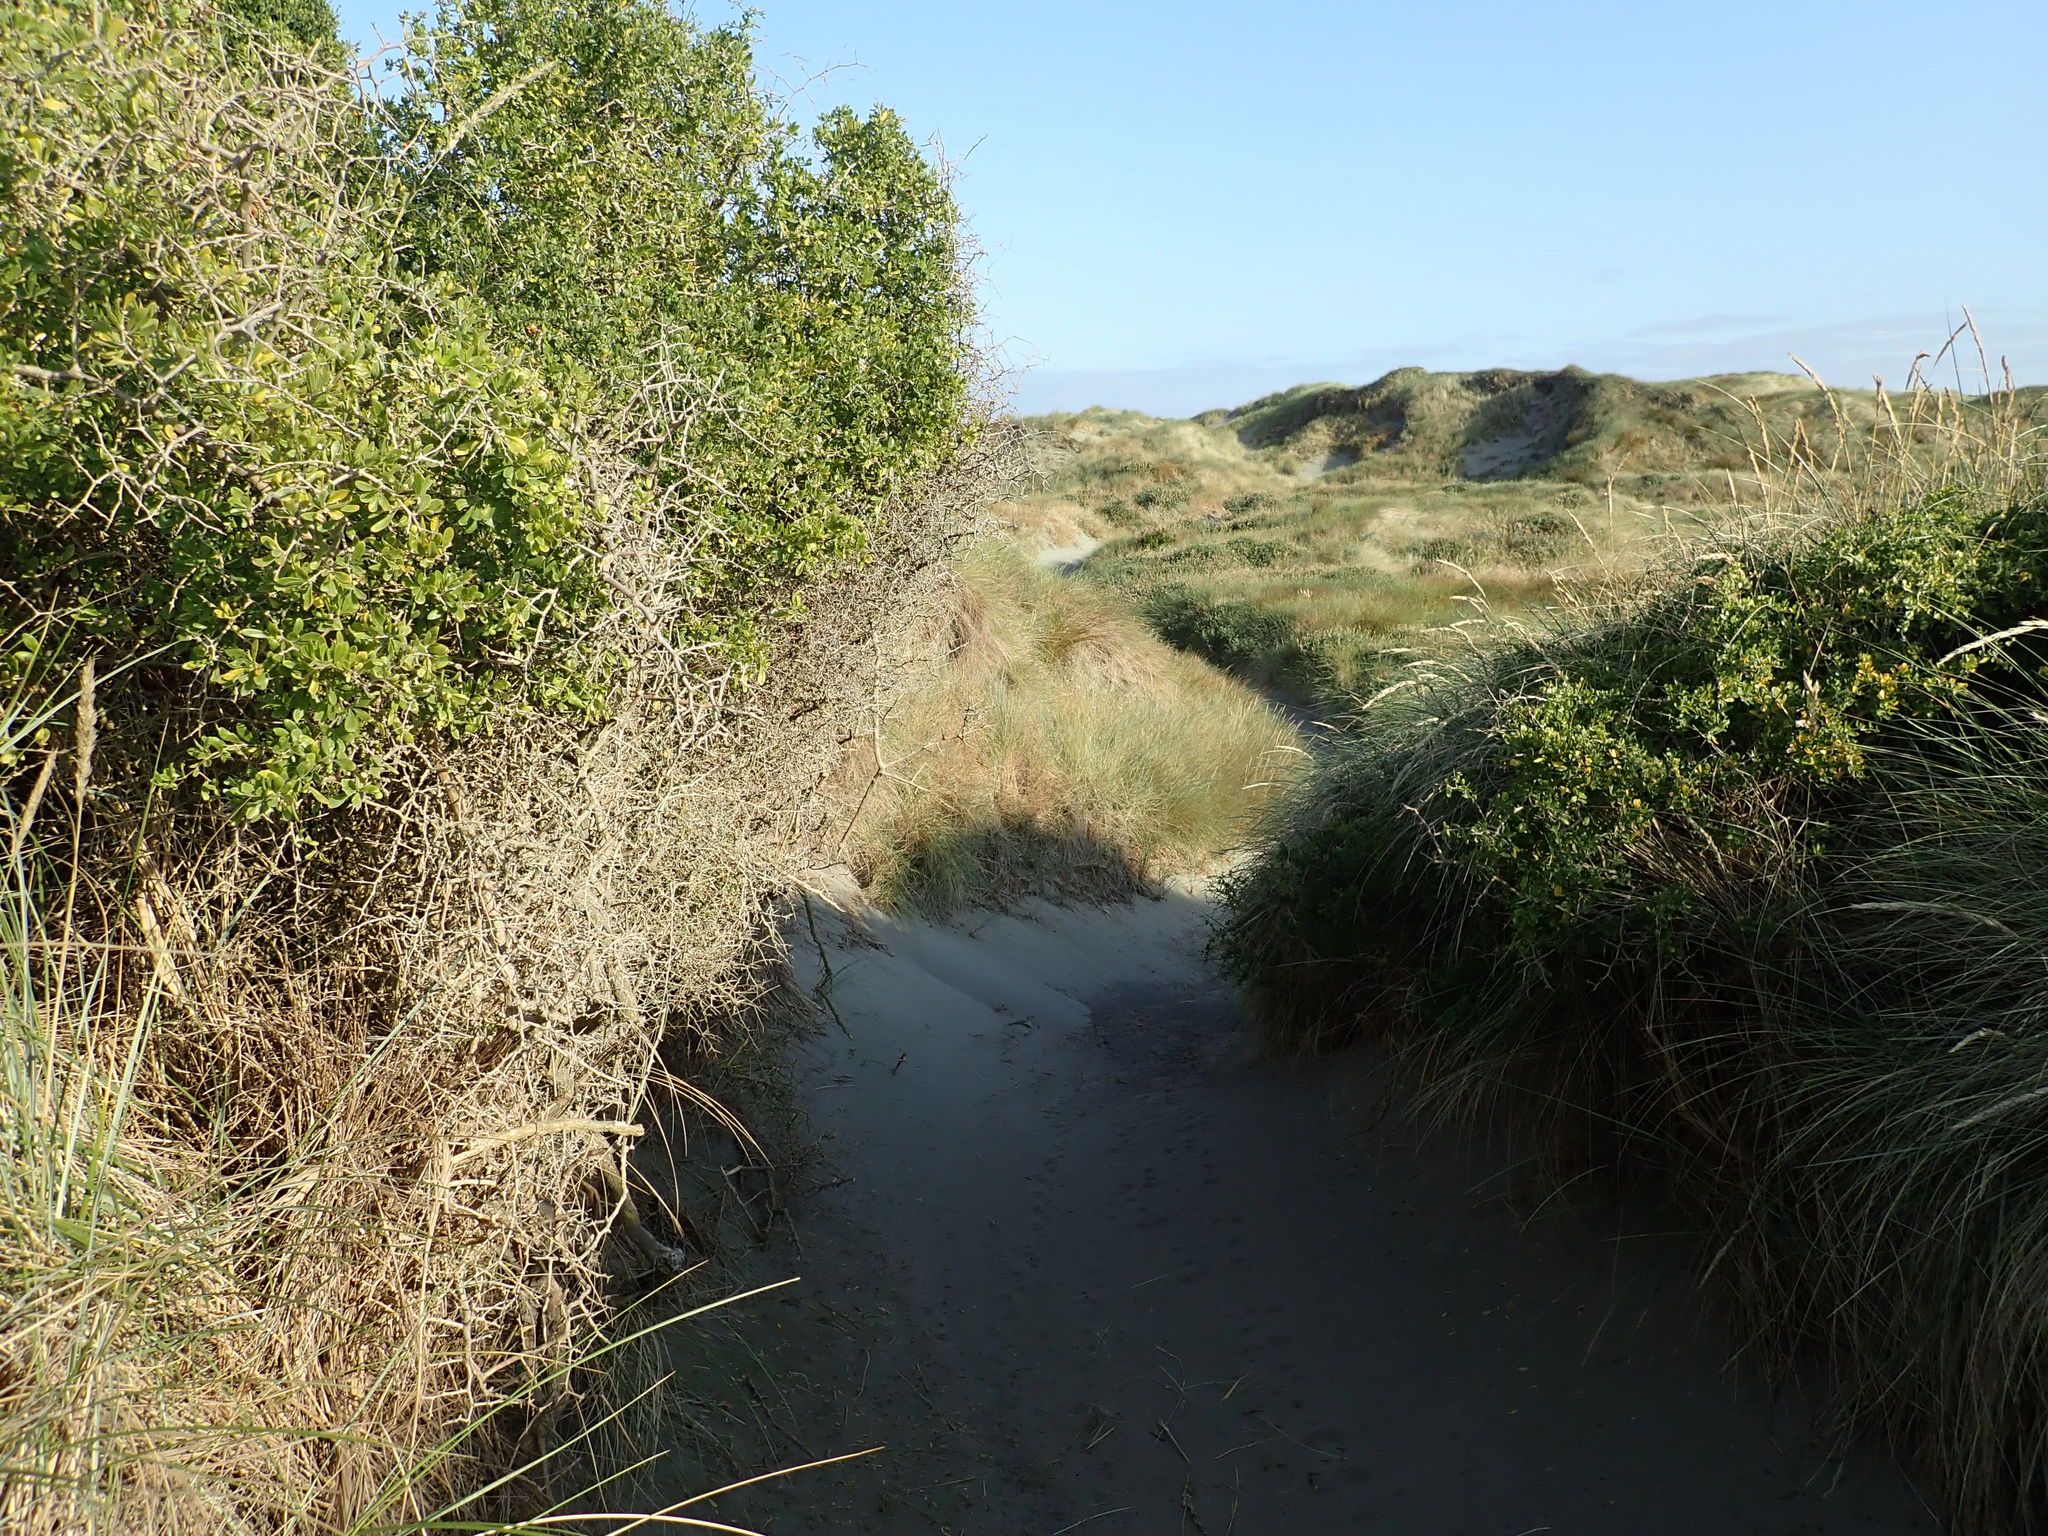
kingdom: Plantae
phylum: Tracheophyta
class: Magnoliopsida
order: Solanales
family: Solanaceae
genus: Lycium
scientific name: Lycium ferocissimum
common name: African boxthorn
